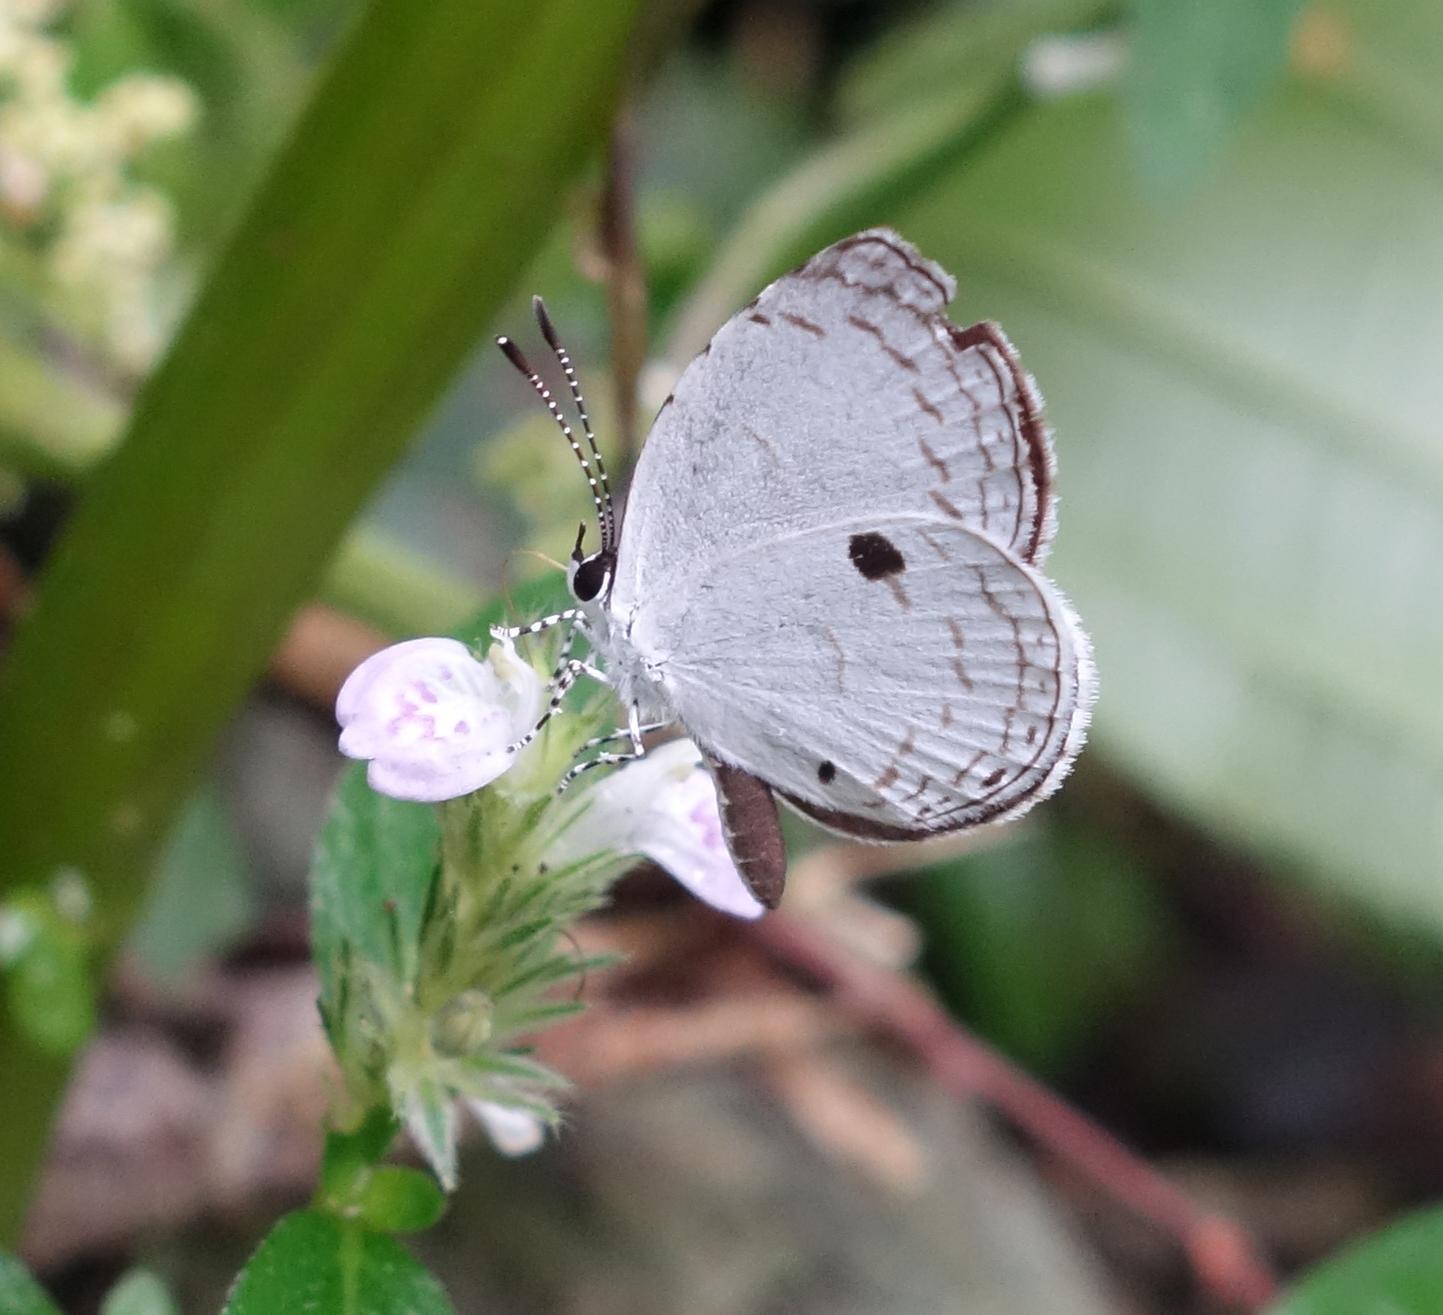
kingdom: Animalia
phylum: Arthropoda
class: Insecta
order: Lepidoptera
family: Lycaenidae
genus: Neopithecops
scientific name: Neopithecops zalmora
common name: Quaker
